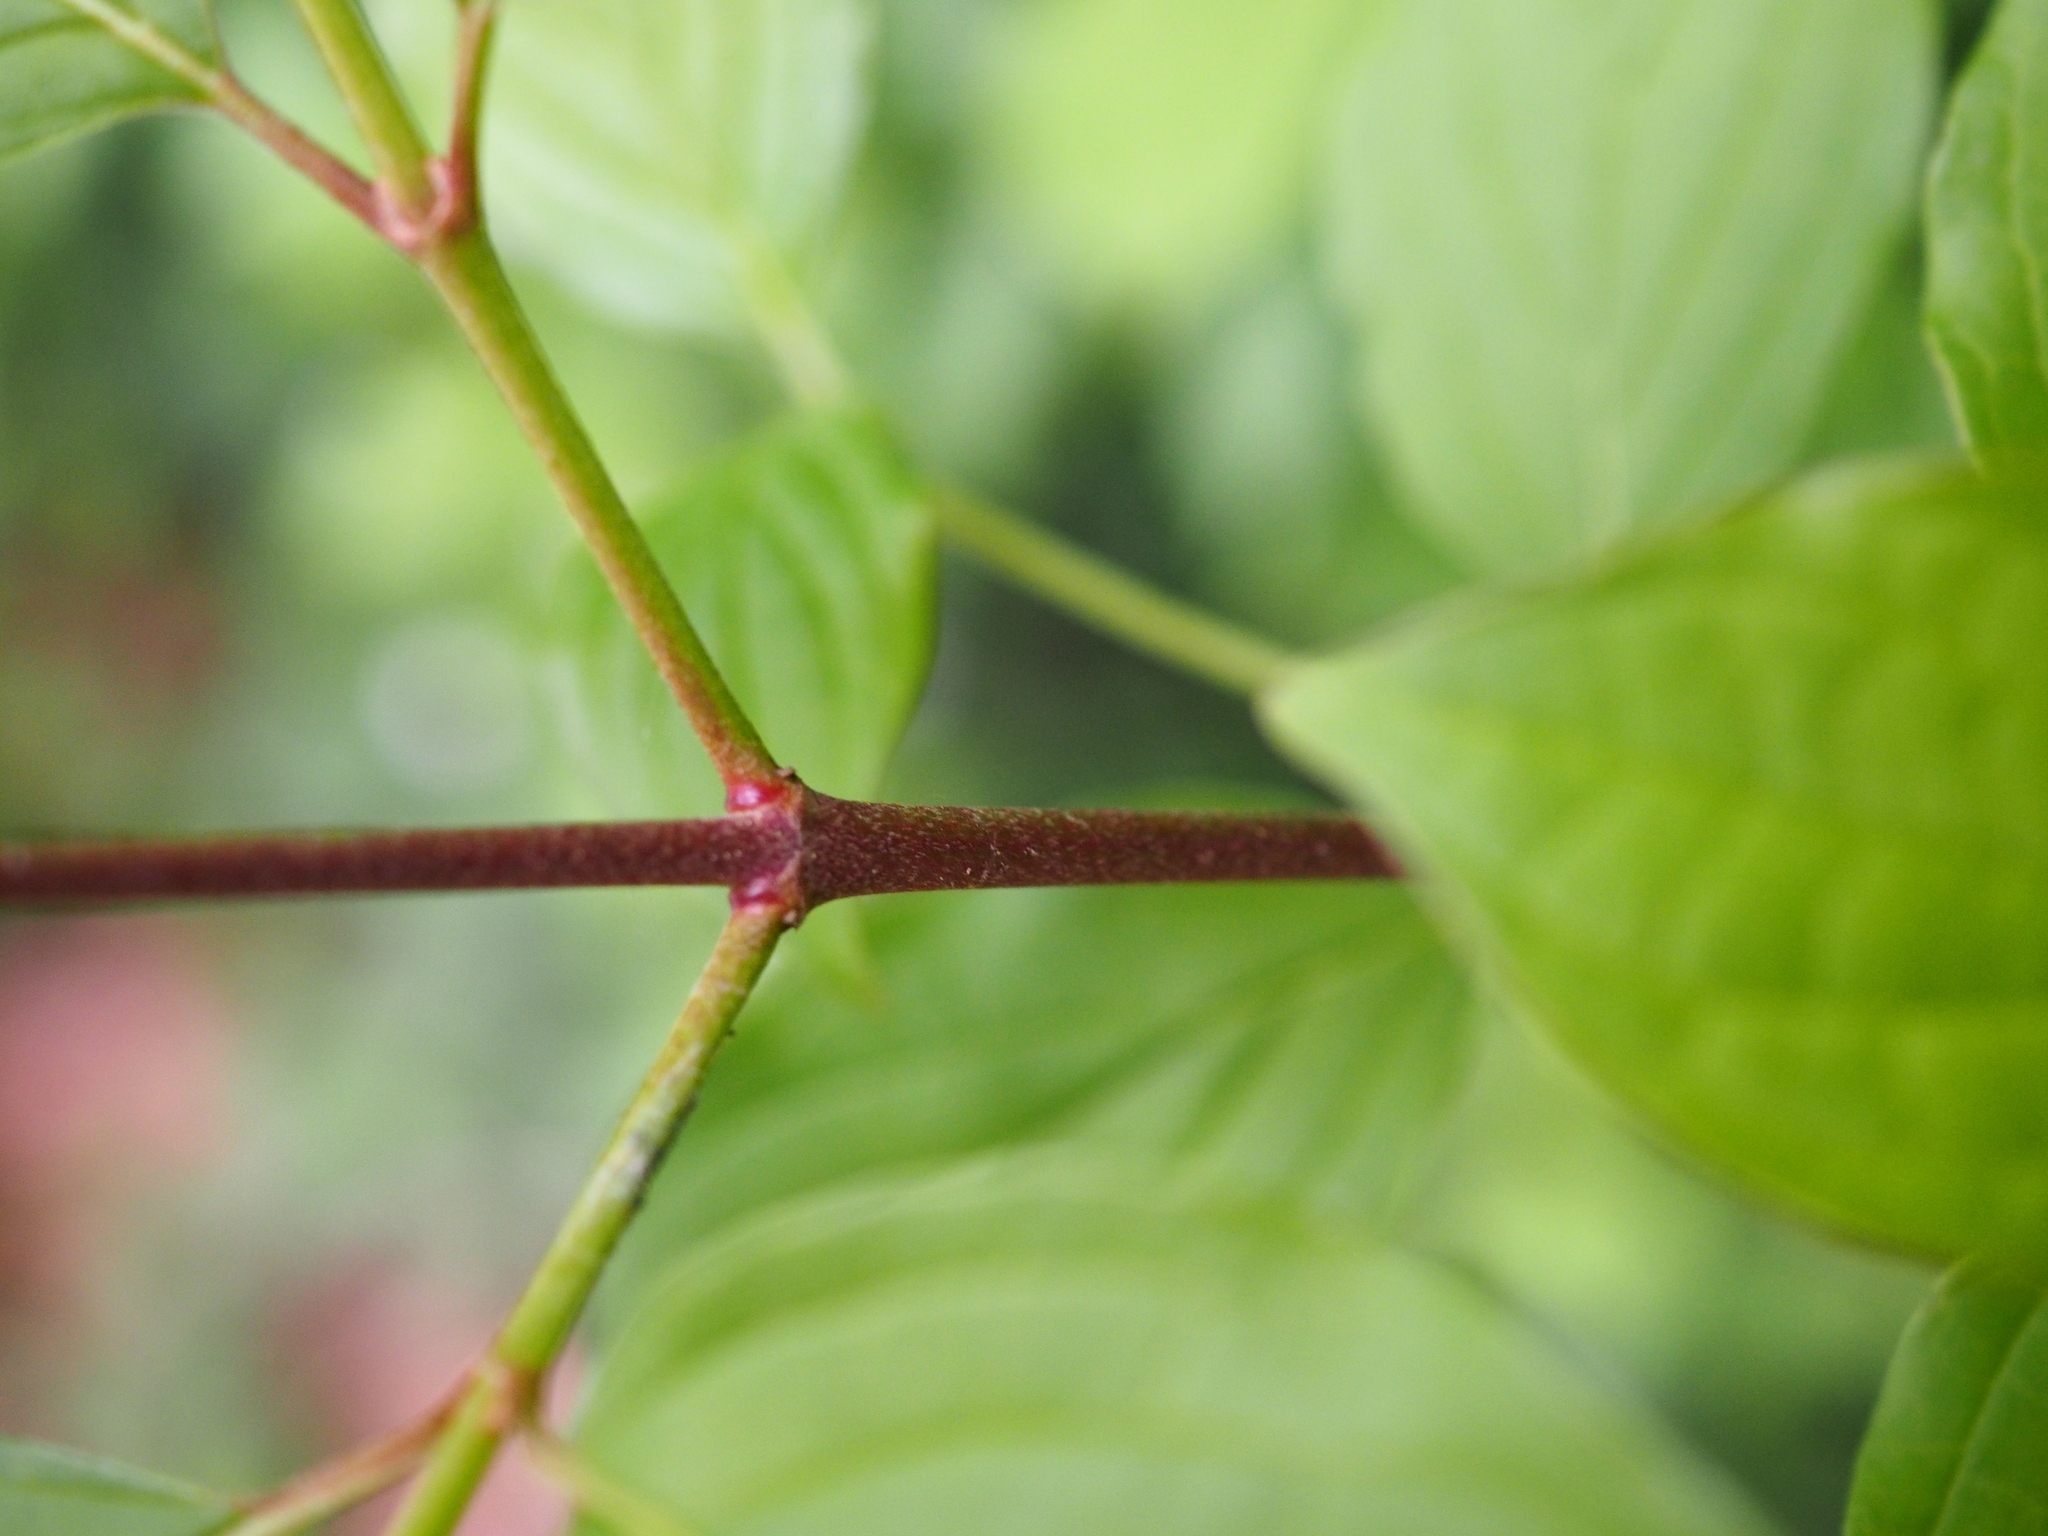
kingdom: Plantae
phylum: Tracheophyta
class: Magnoliopsida
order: Cornales
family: Cornaceae
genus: Cornus
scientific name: Cornus sanguinea
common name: Dogwood
